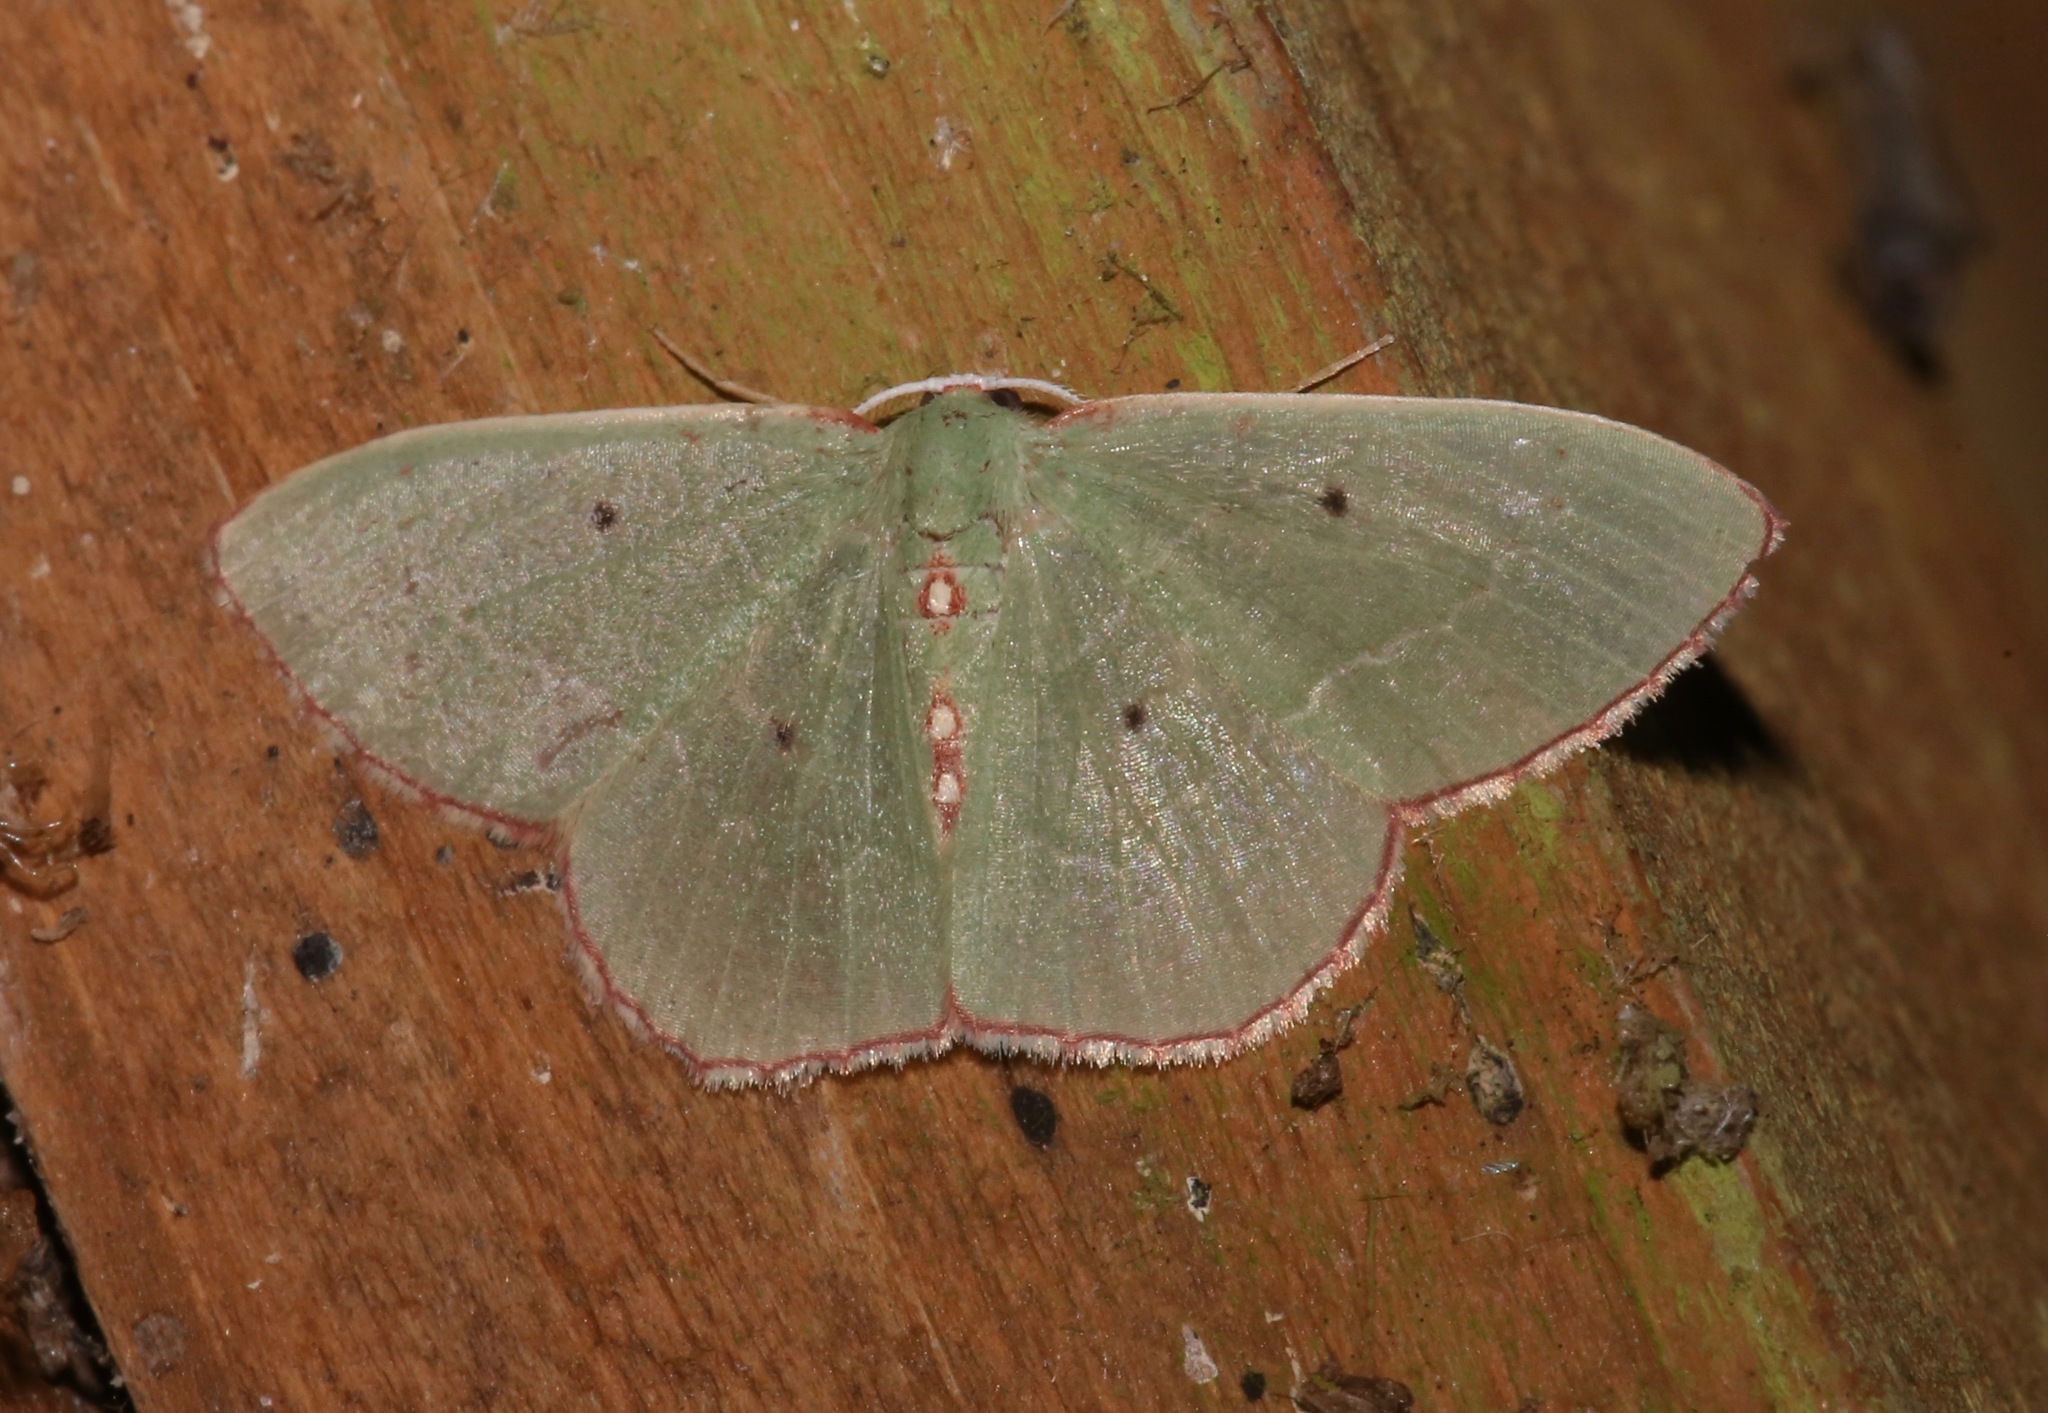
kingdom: Animalia
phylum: Arthropoda
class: Insecta
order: Lepidoptera
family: Geometridae
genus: Nemoria
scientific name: Nemoria lixaria
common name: Red-bordered emerald
